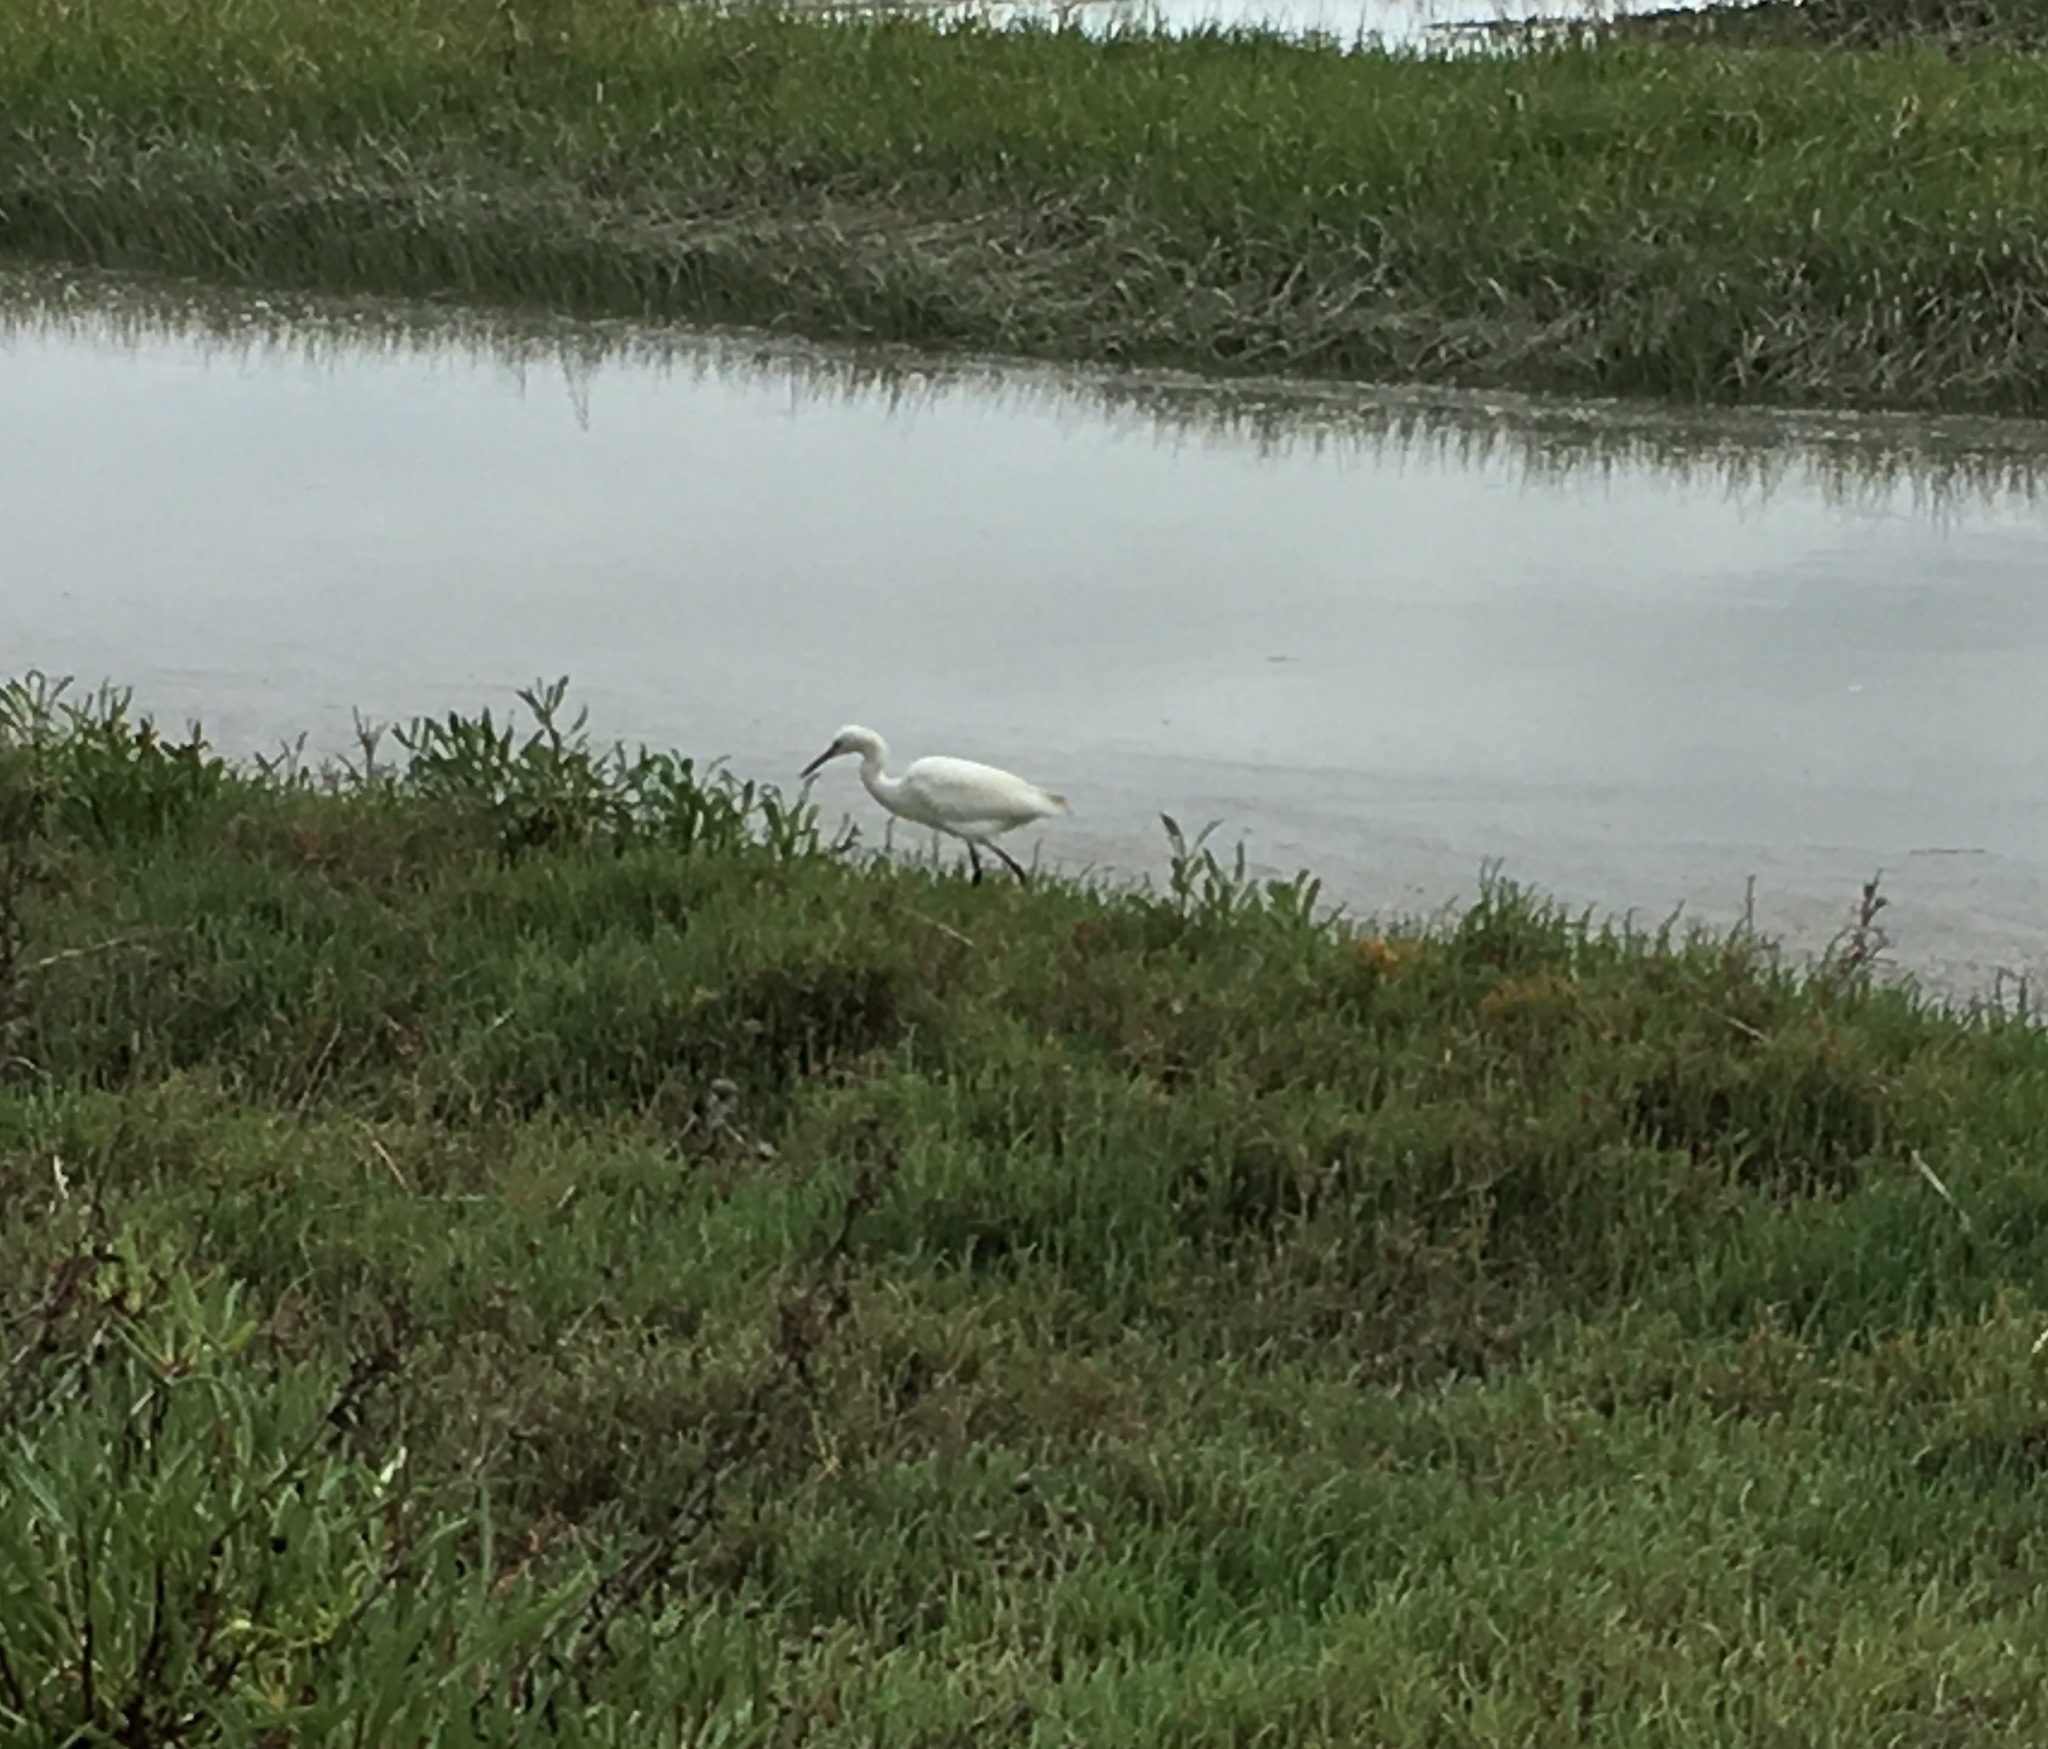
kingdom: Animalia
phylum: Chordata
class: Aves
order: Pelecaniformes
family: Ardeidae
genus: Egretta
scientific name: Egretta thula
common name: Snowy egret
